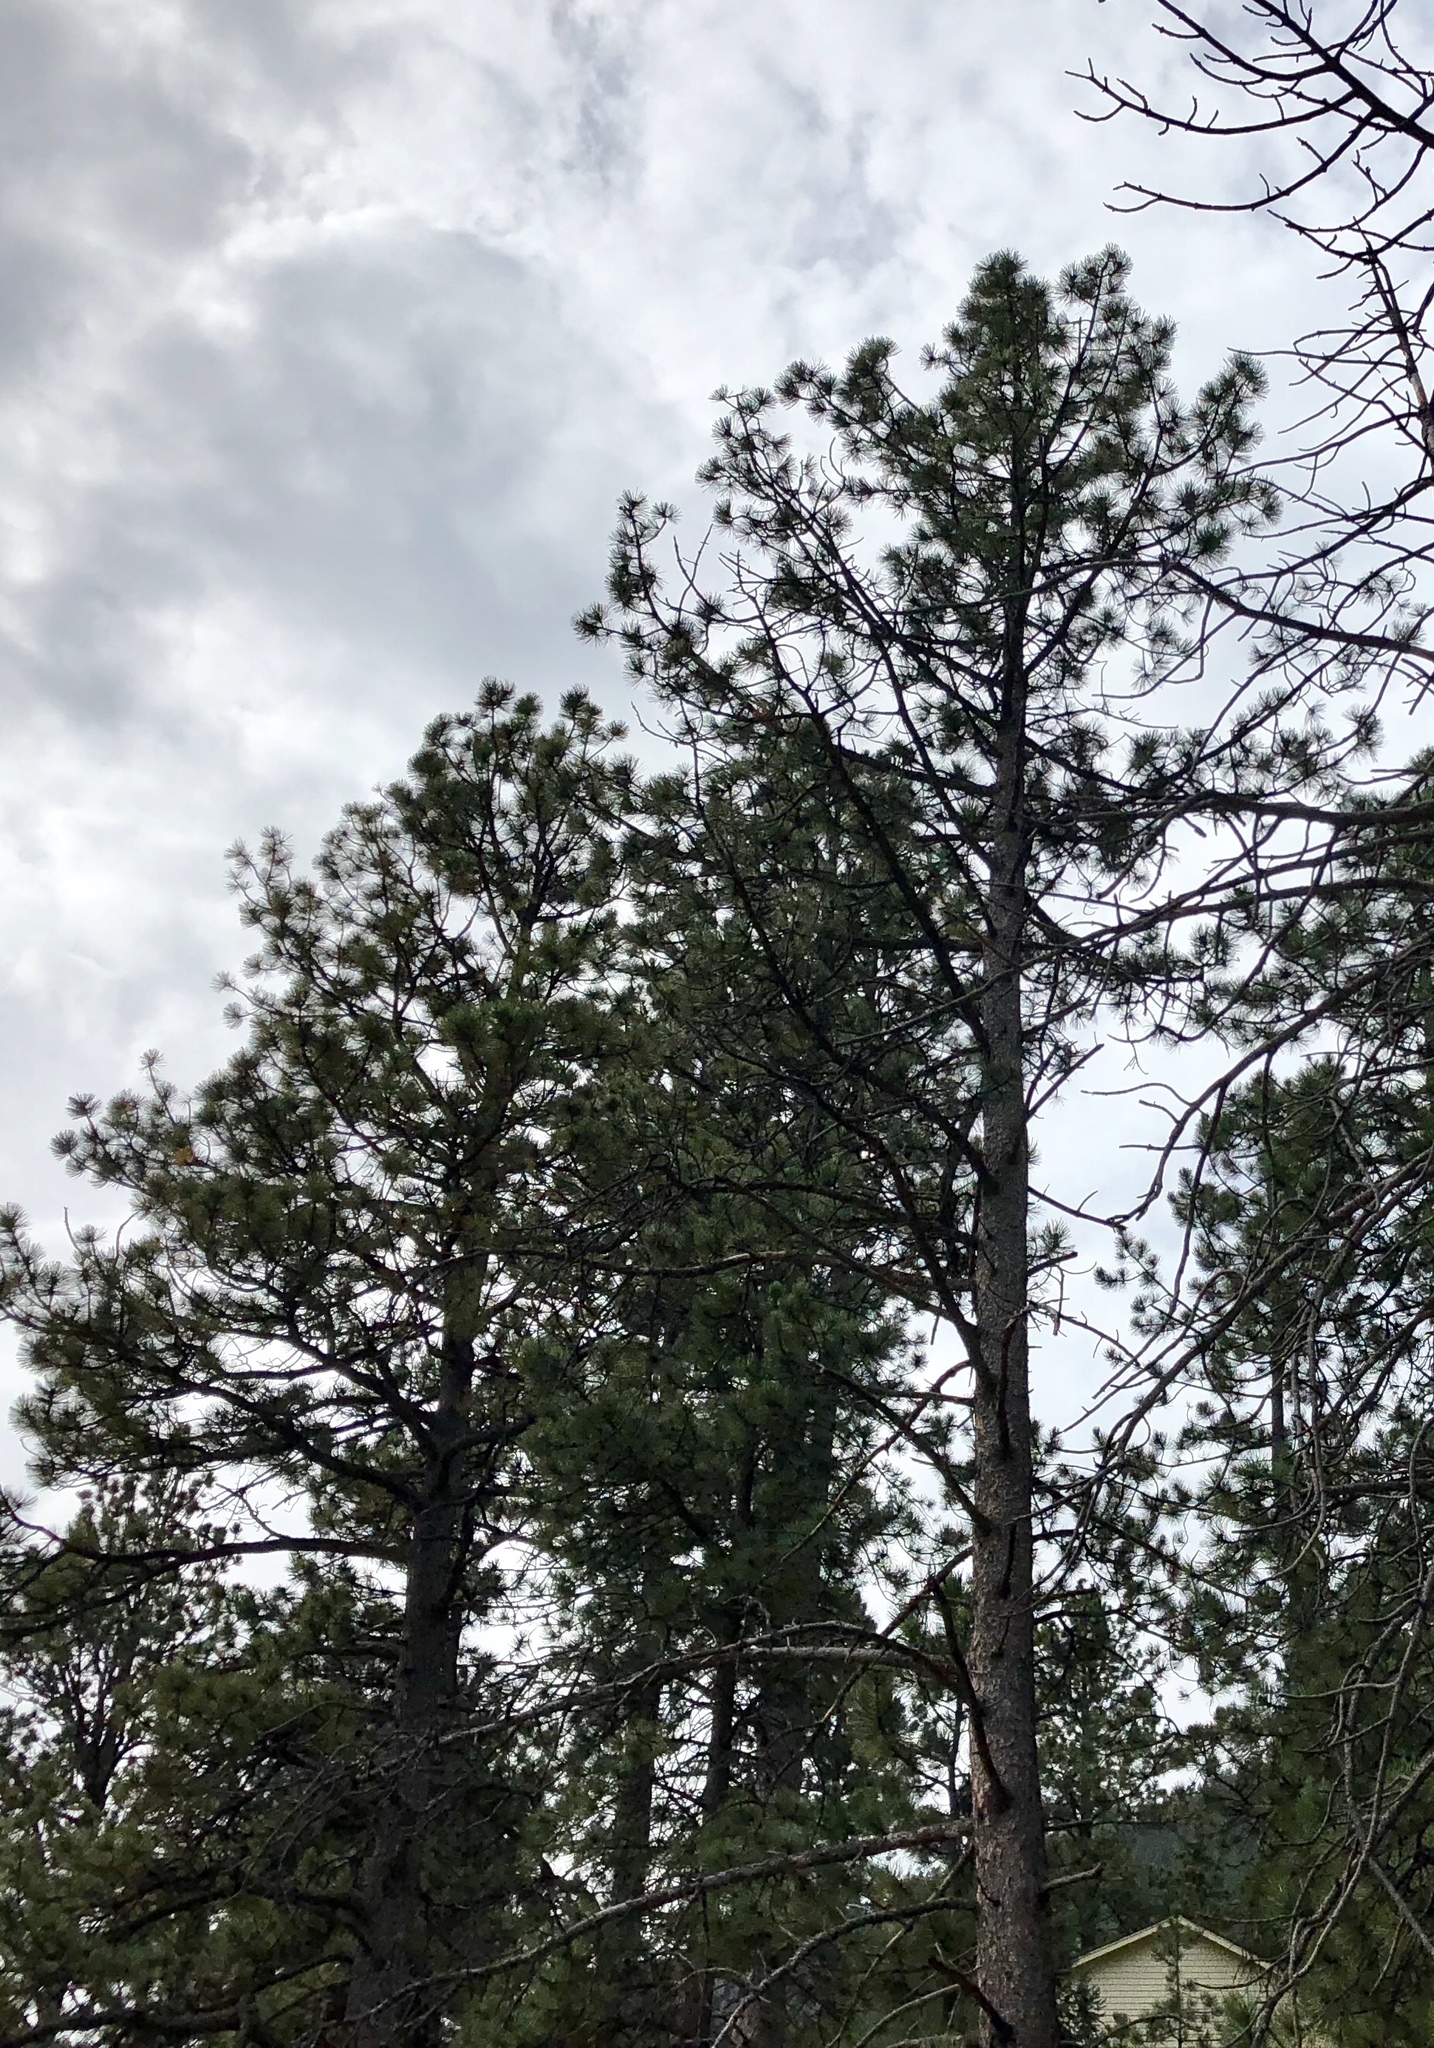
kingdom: Plantae
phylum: Tracheophyta
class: Pinopsida
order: Pinales
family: Pinaceae
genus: Pinus
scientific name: Pinus ponderosa
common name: Western yellow-pine
